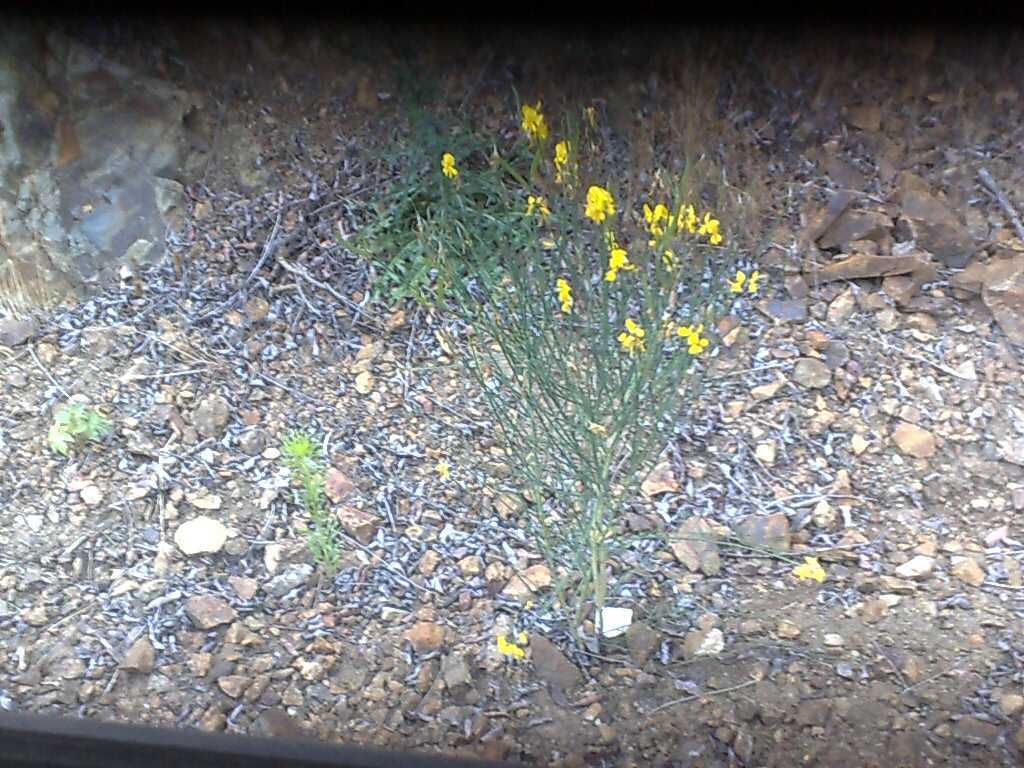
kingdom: Plantae
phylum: Tracheophyta
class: Magnoliopsida
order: Fabales
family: Fabaceae
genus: Spartium
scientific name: Spartium junceum
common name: Spanish broom
